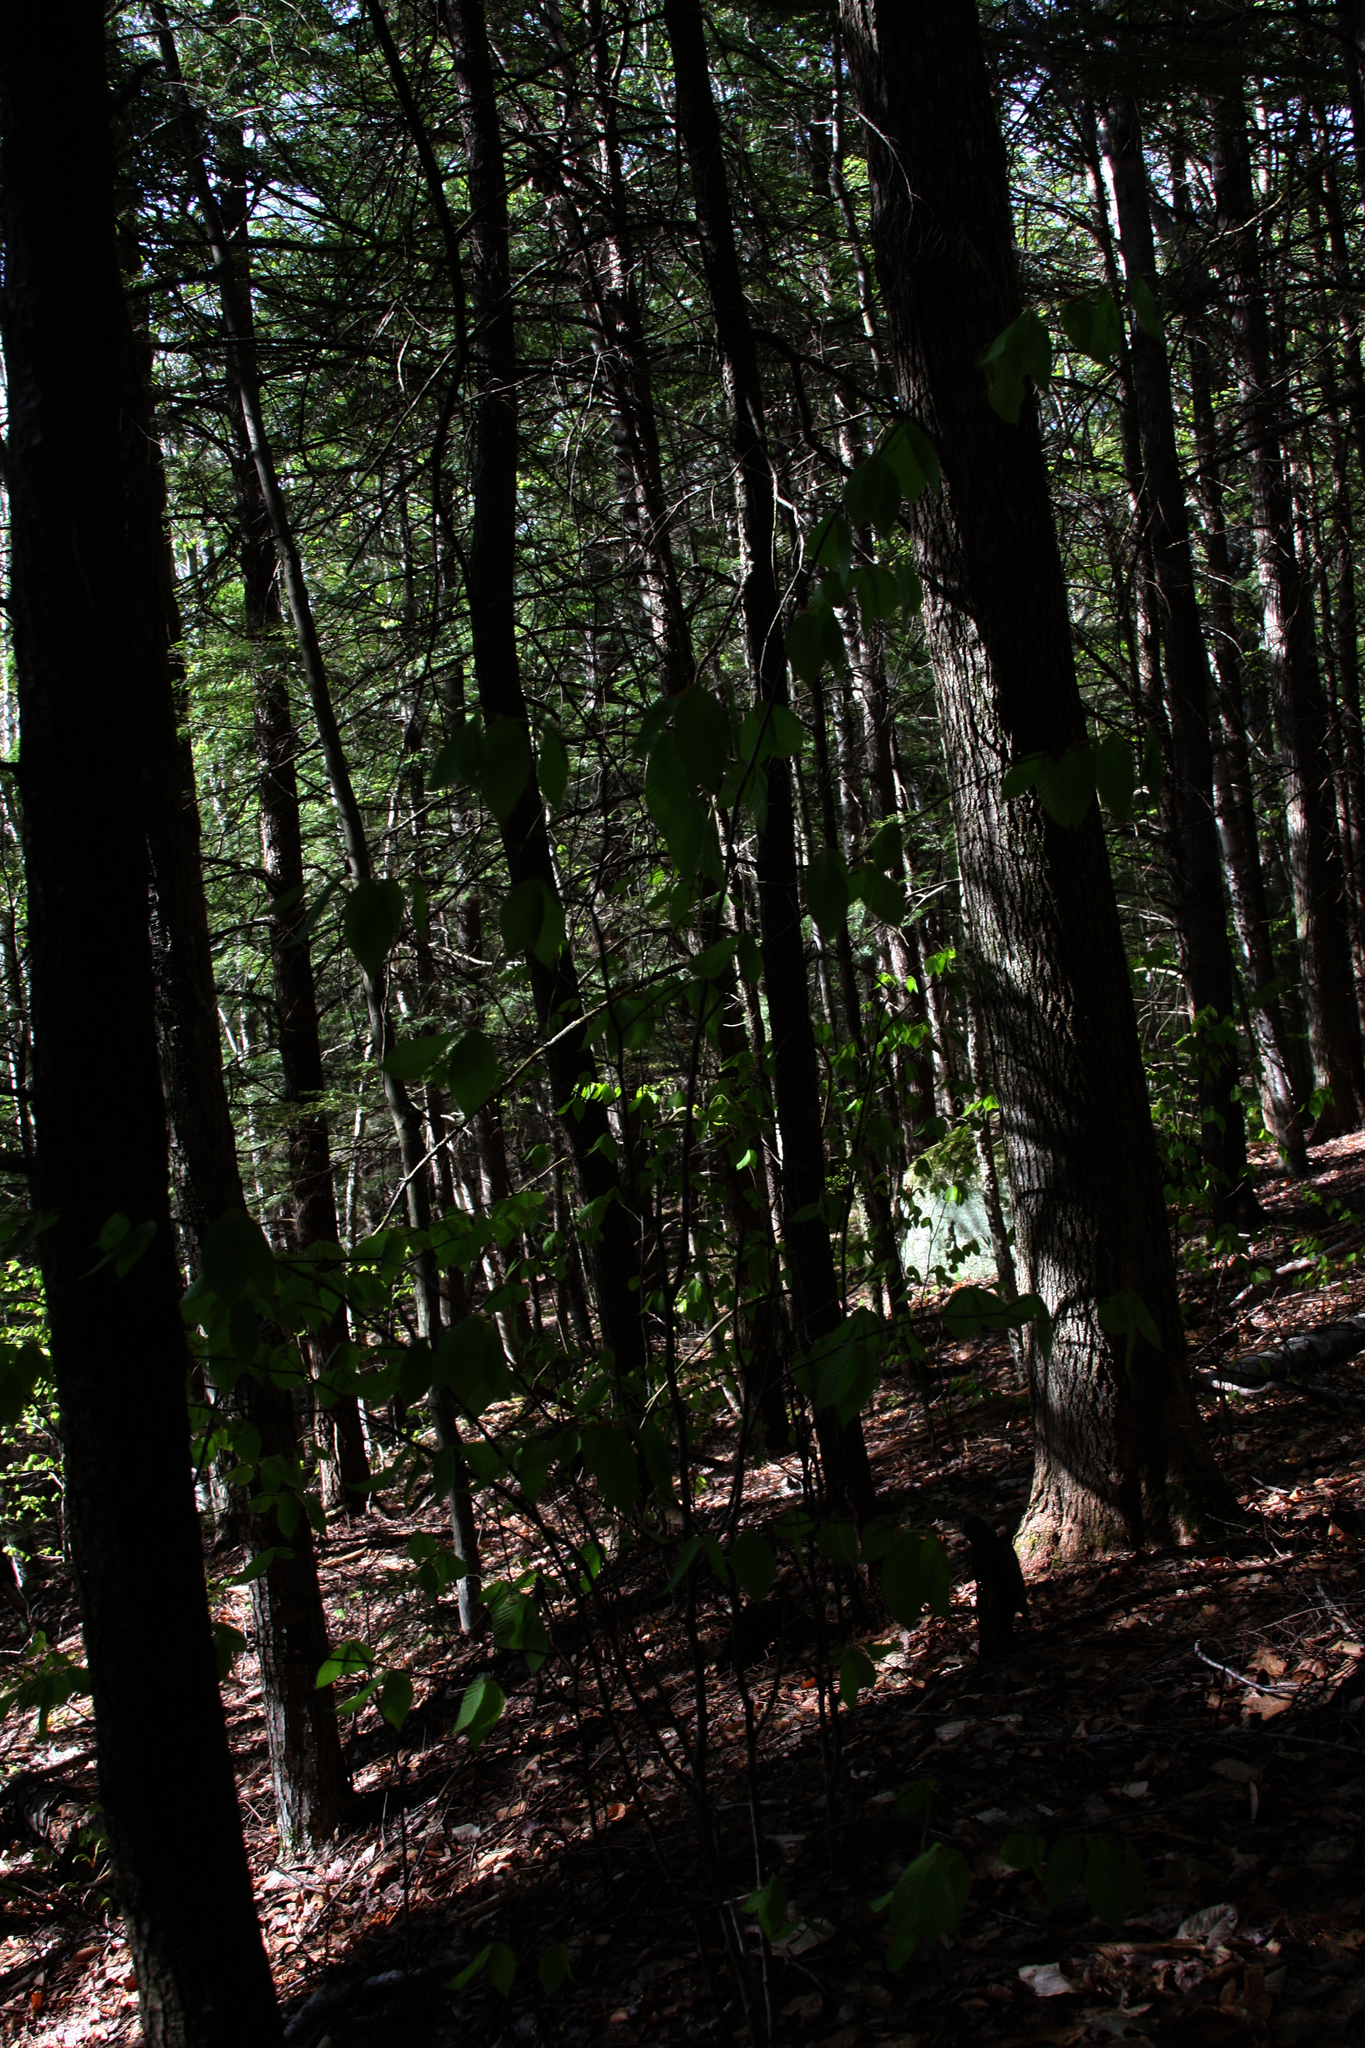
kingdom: Plantae
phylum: Tracheophyta
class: Magnoliopsida
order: Fagales
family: Fagaceae
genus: Fagus
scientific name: Fagus grandifolia
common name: American beech
